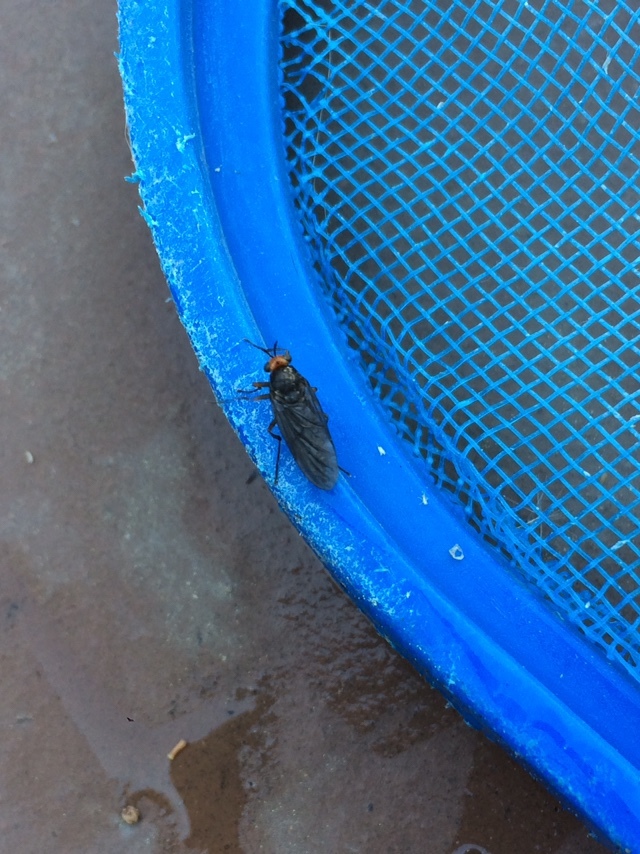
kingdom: Animalia
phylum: Arthropoda
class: Insecta
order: Diptera
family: Stratiomyidae
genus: Inopus
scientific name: Inopus rubriceps
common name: Soldier fly
